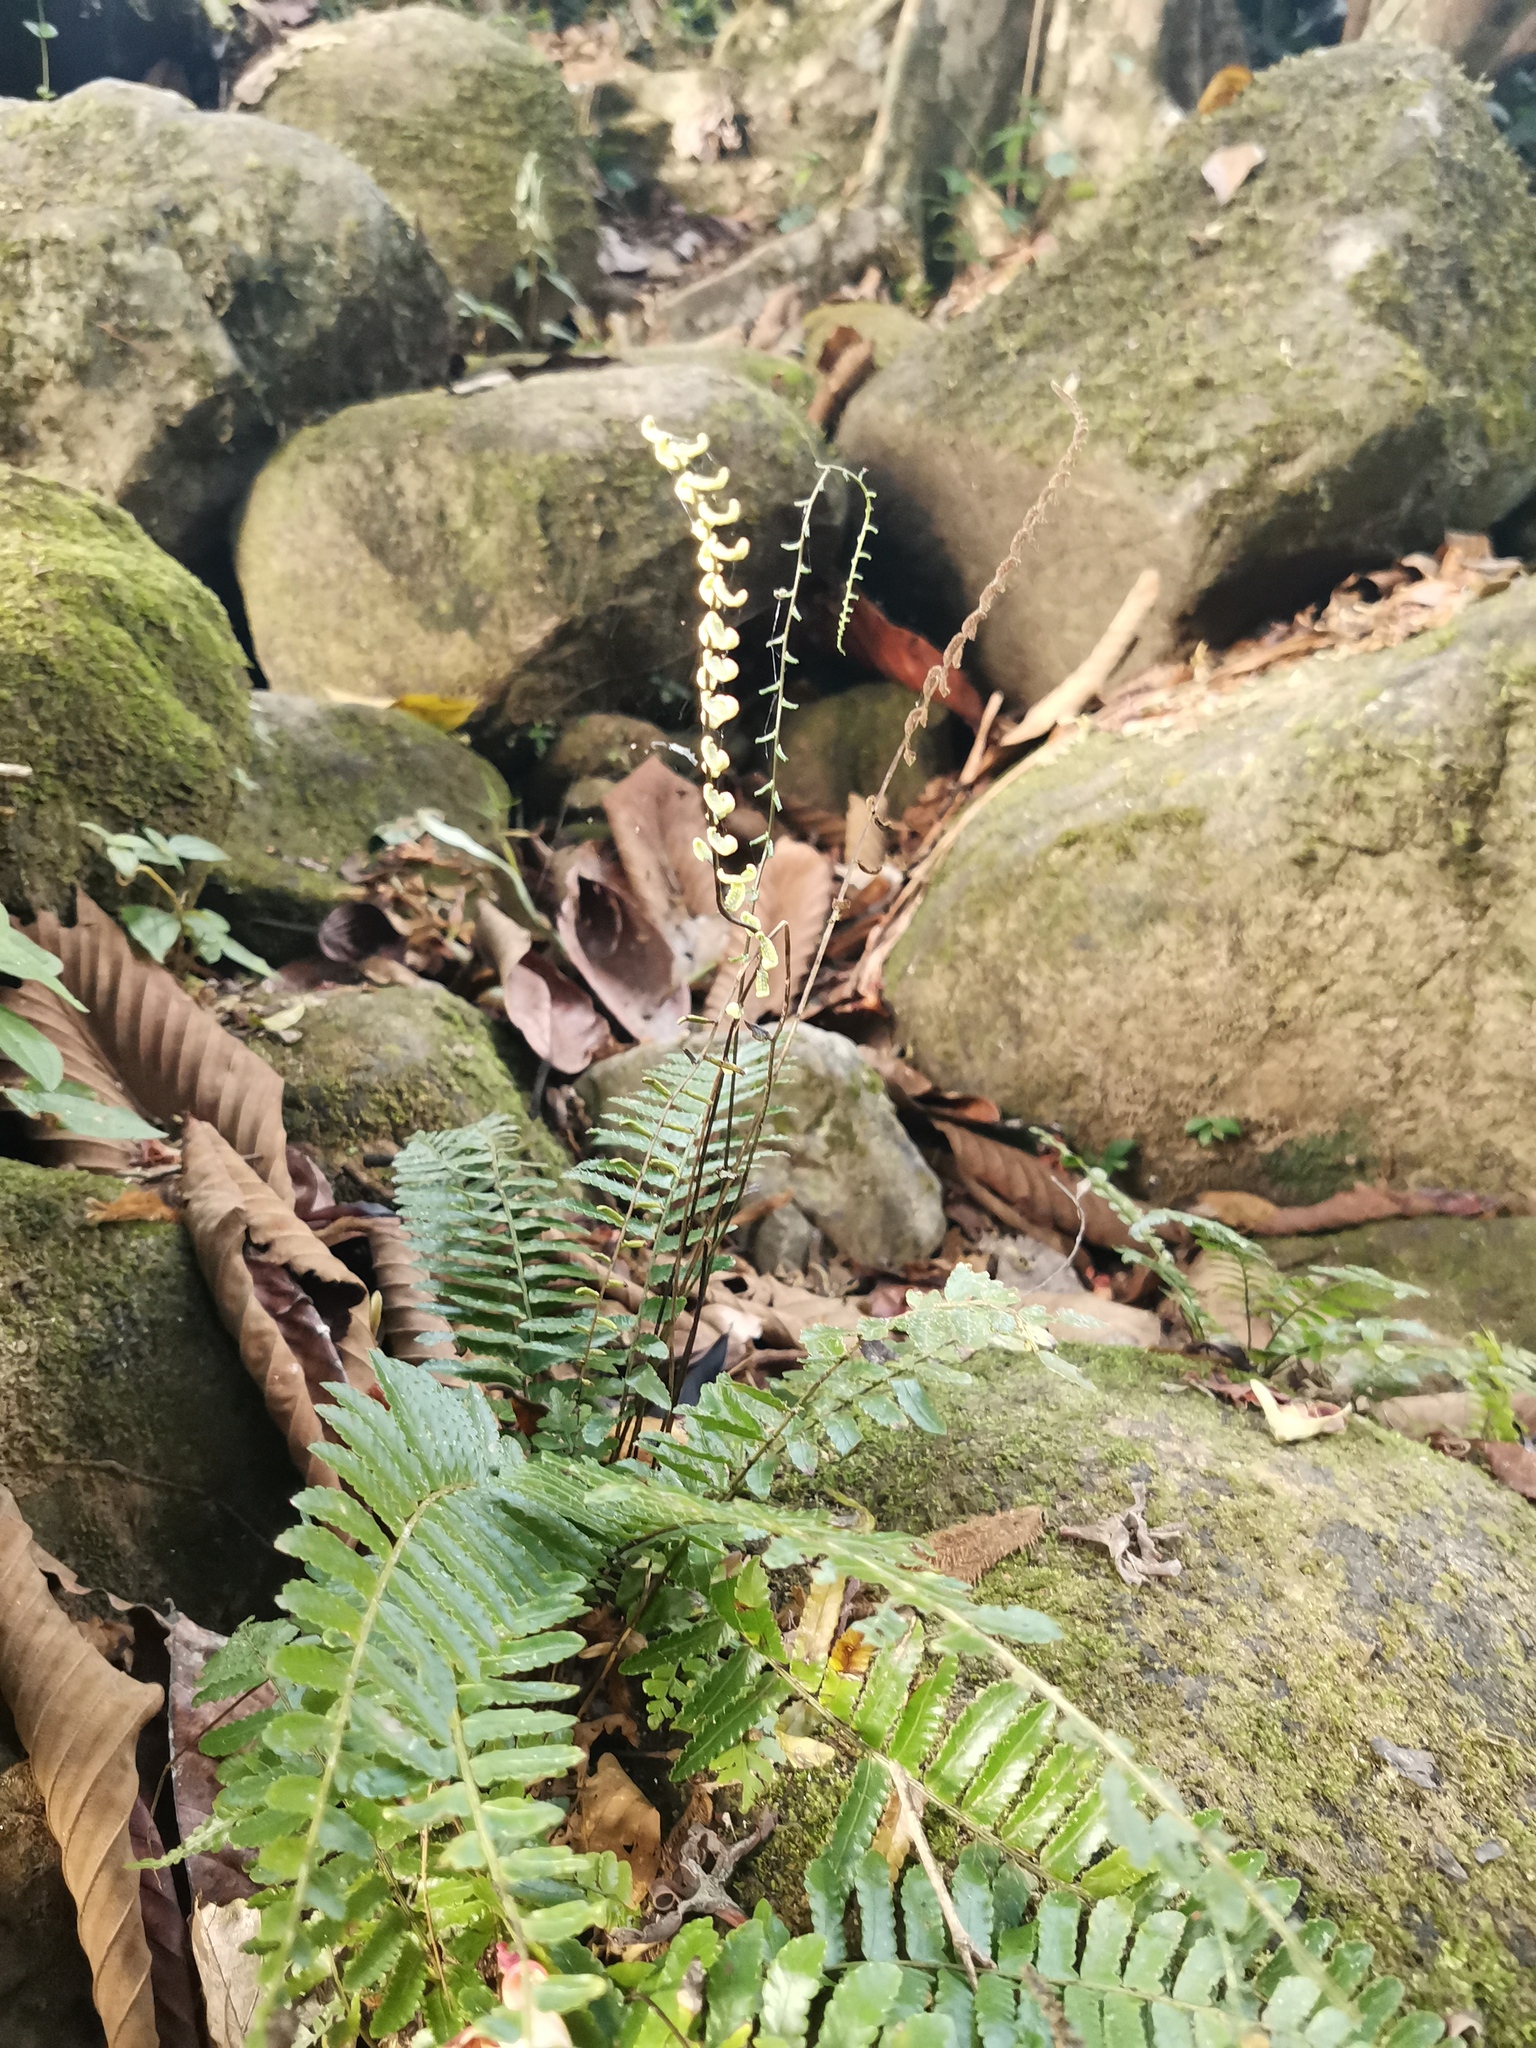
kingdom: Plantae
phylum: Tracheophyta
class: Polypodiopsida
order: Polypodiales
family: Dryopteridaceae
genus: Bolbitis
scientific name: Bolbitis appendiculata
